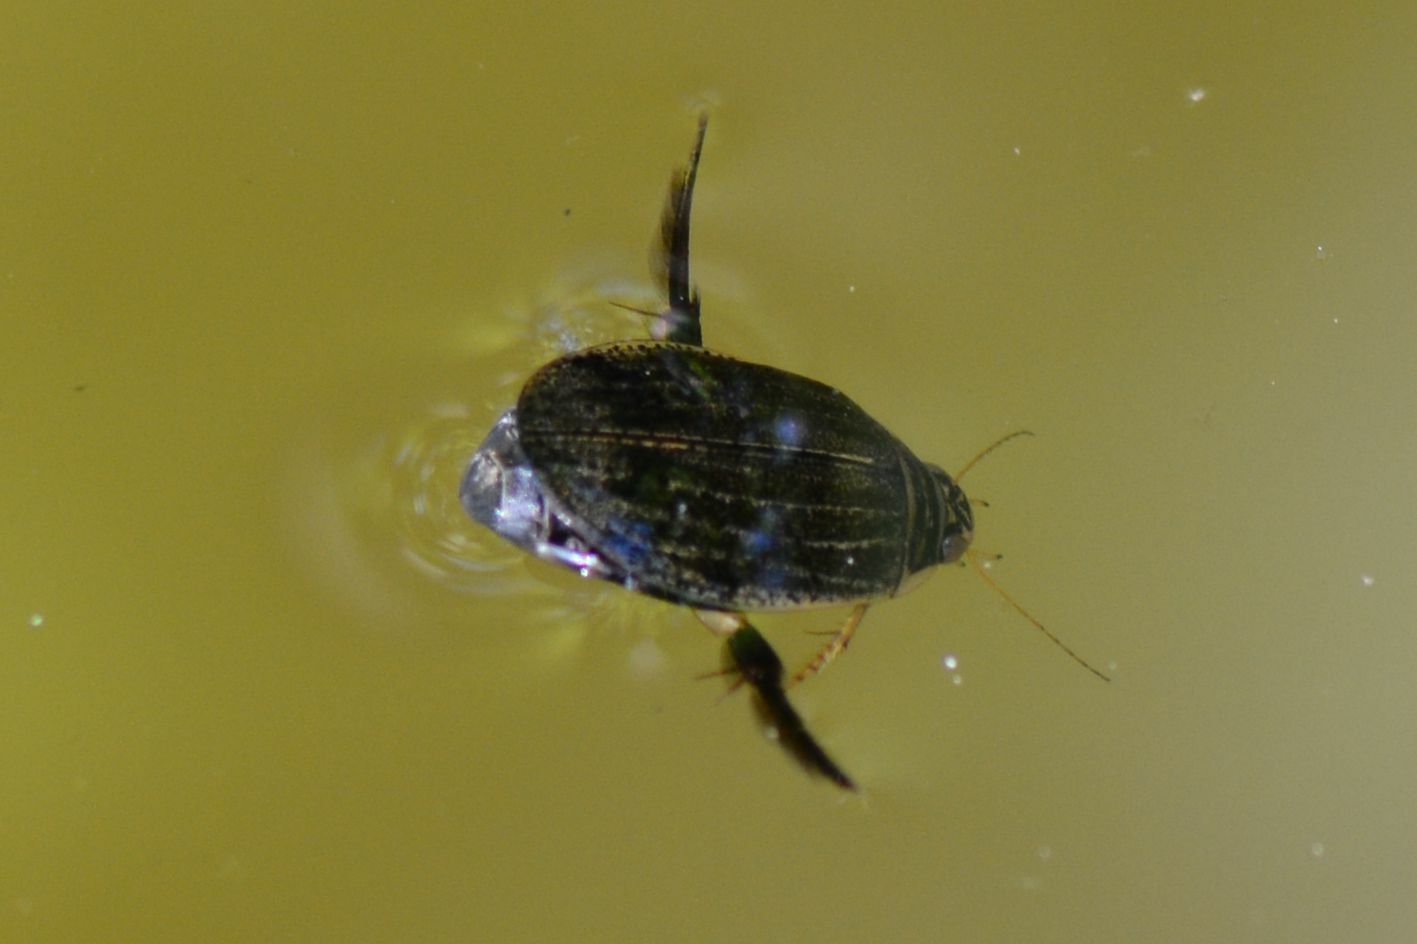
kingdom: Animalia
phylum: Arthropoda
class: Insecta
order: Coleoptera
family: Dytiscidae
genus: Acilius
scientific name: Acilius sulcatus
